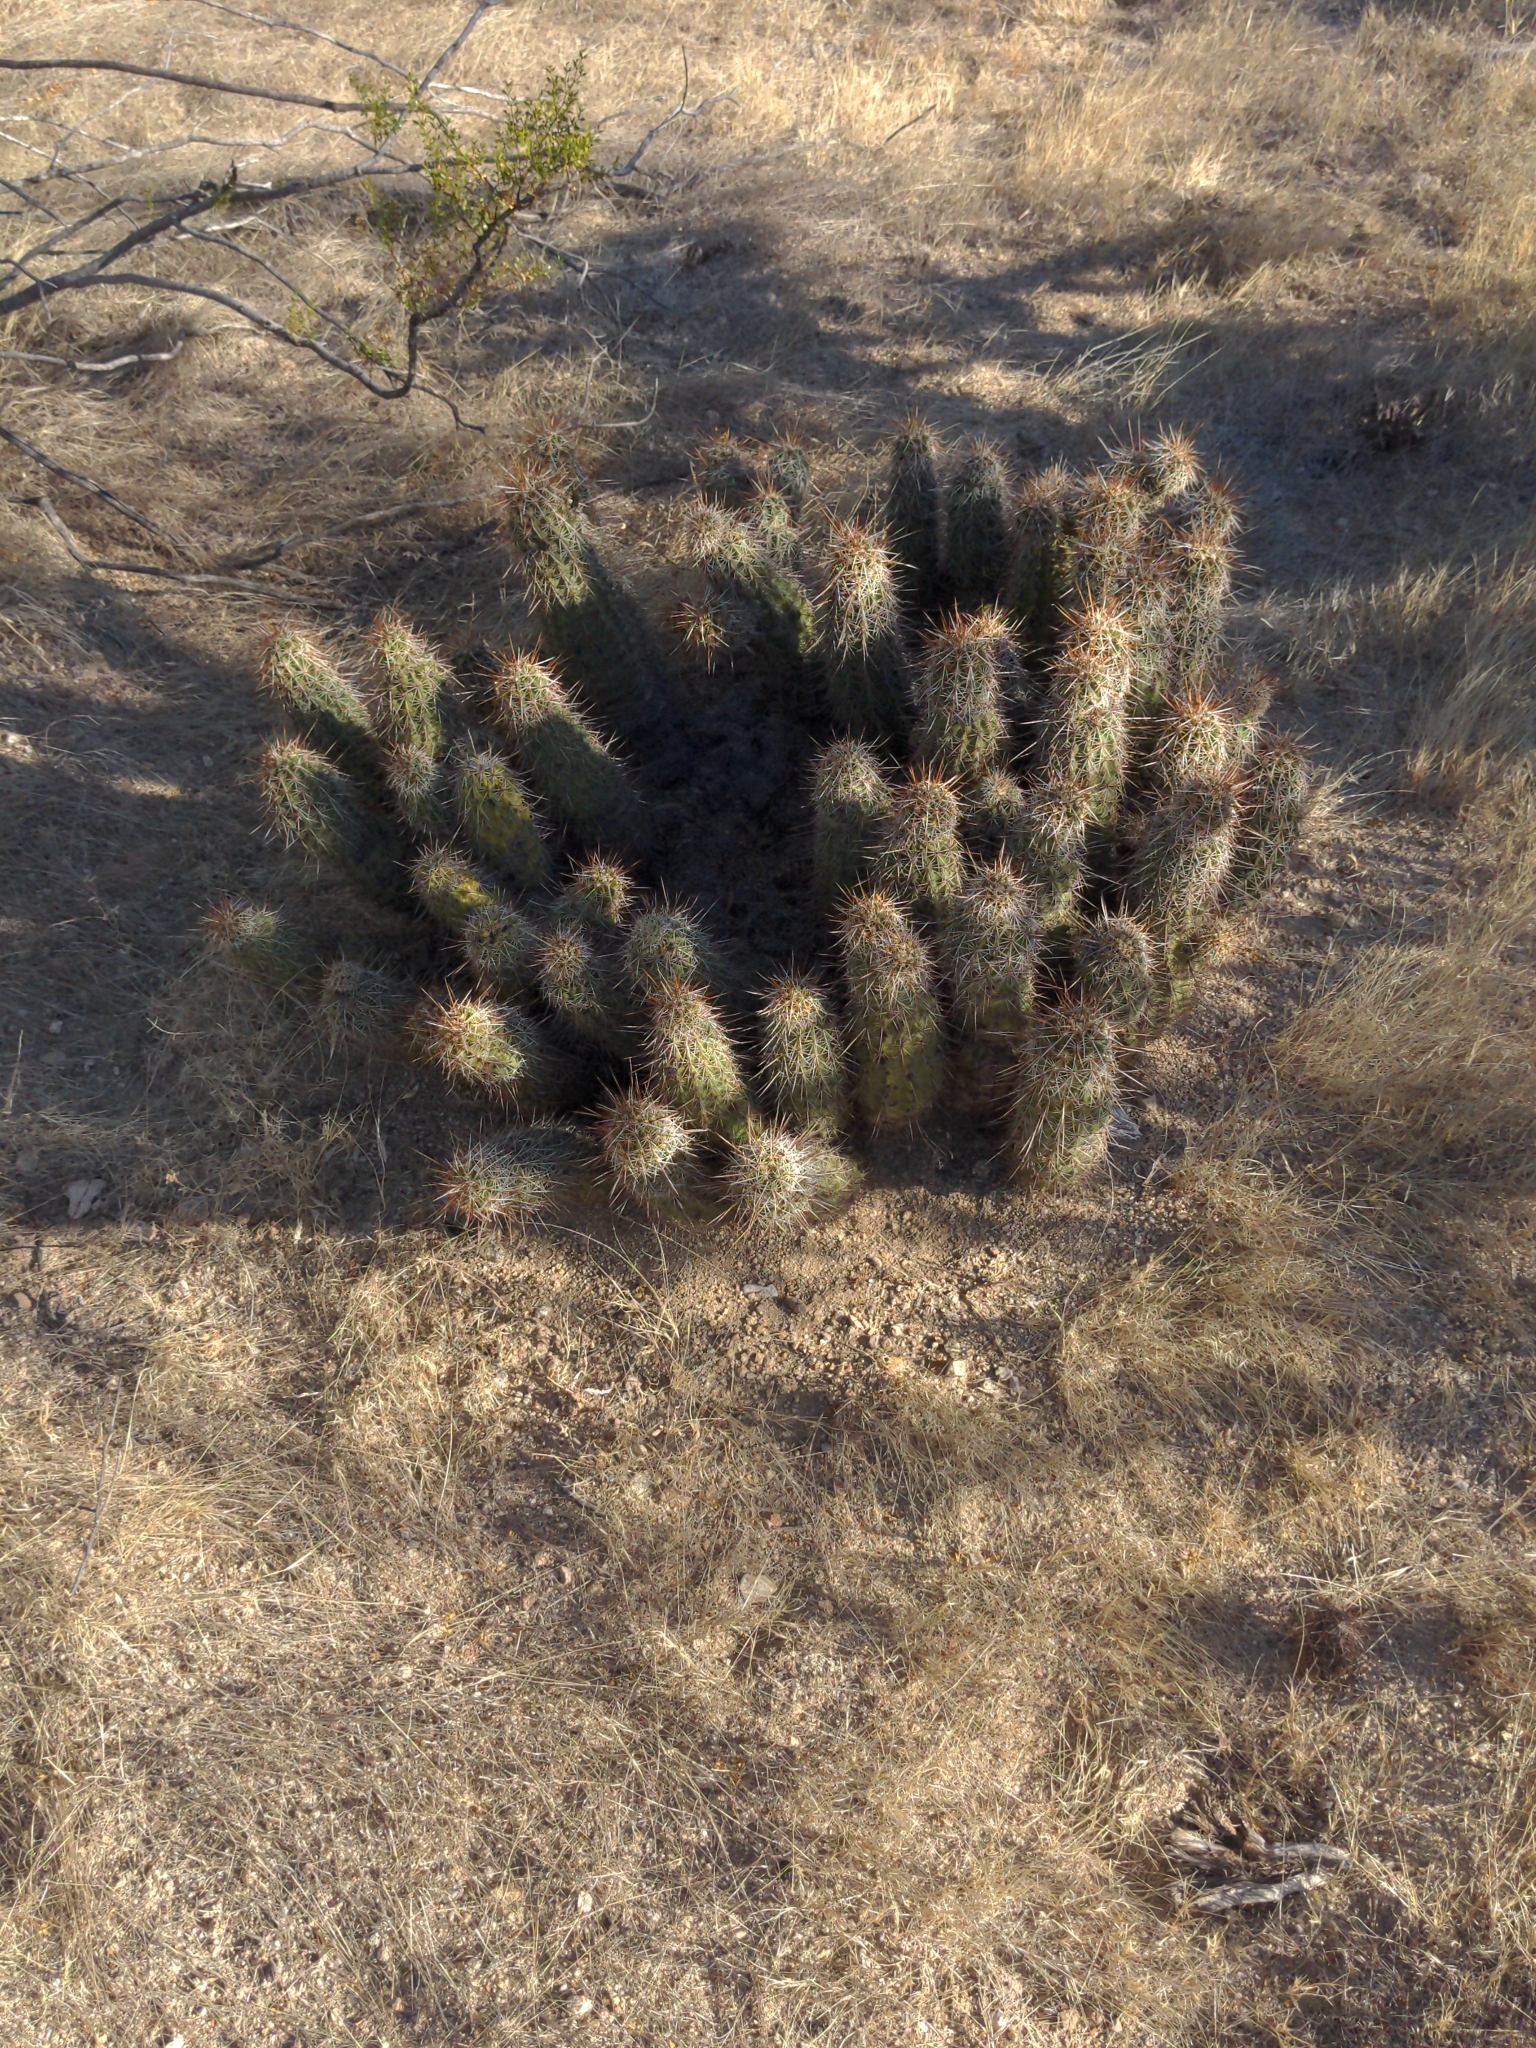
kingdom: Plantae
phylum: Tracheophyta
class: Magnoliopsida
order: Caryophyllales
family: Cactaceae
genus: Echinocereus
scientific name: Echinocereus engelmannii
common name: Engelmann's hedgehog cactus
